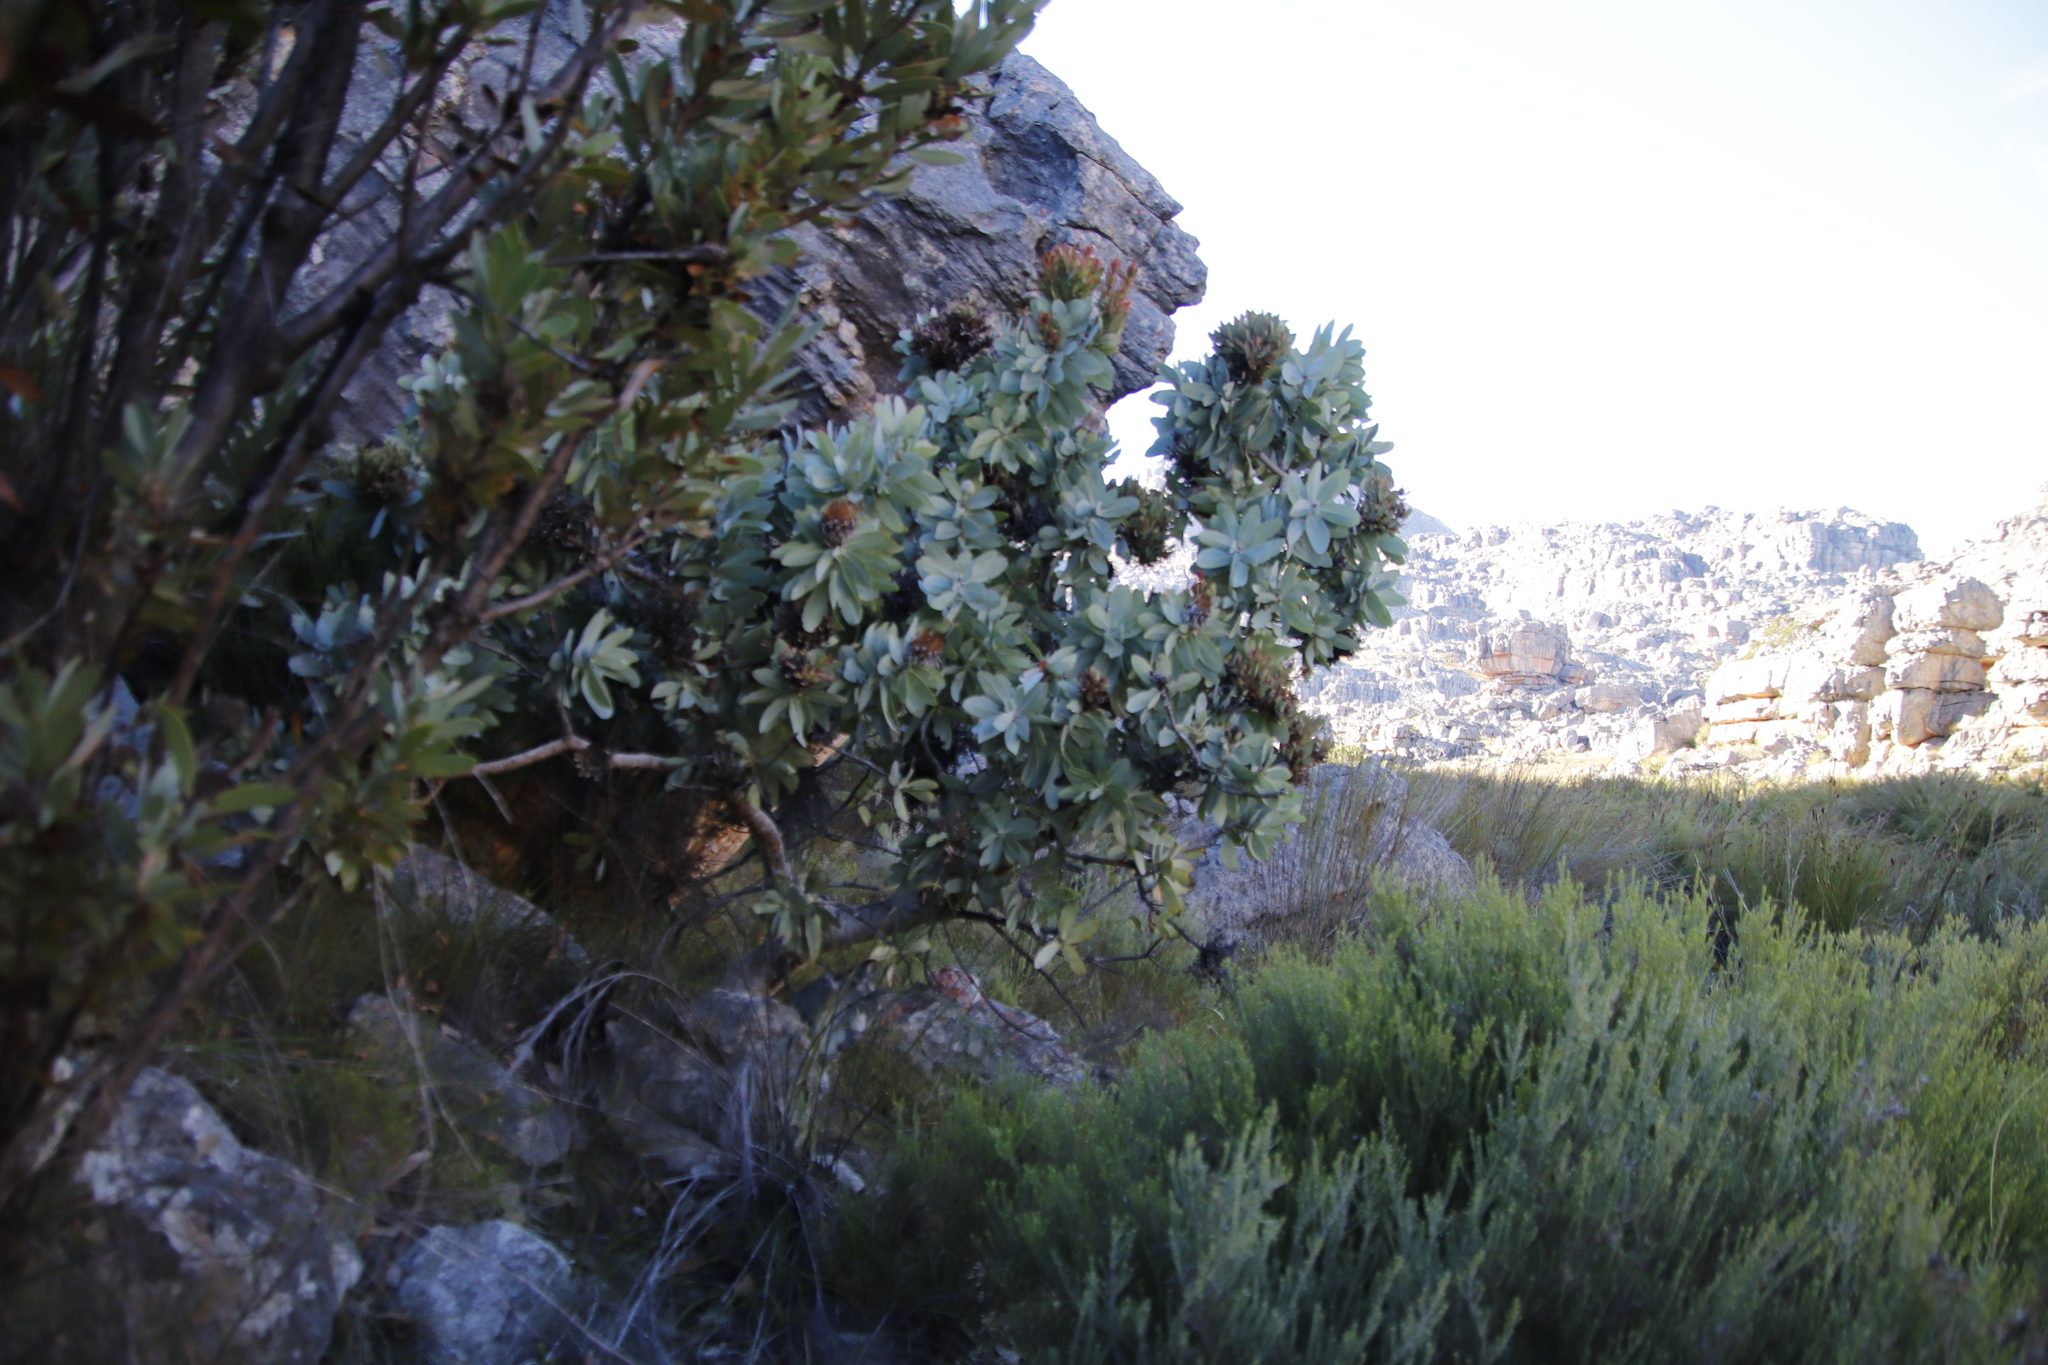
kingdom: Plantae
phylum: Tracheophyta
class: Magnoliopsida
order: Proteales
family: Proteaceae
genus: Protea
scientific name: Protea nitida
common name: Tree protea
